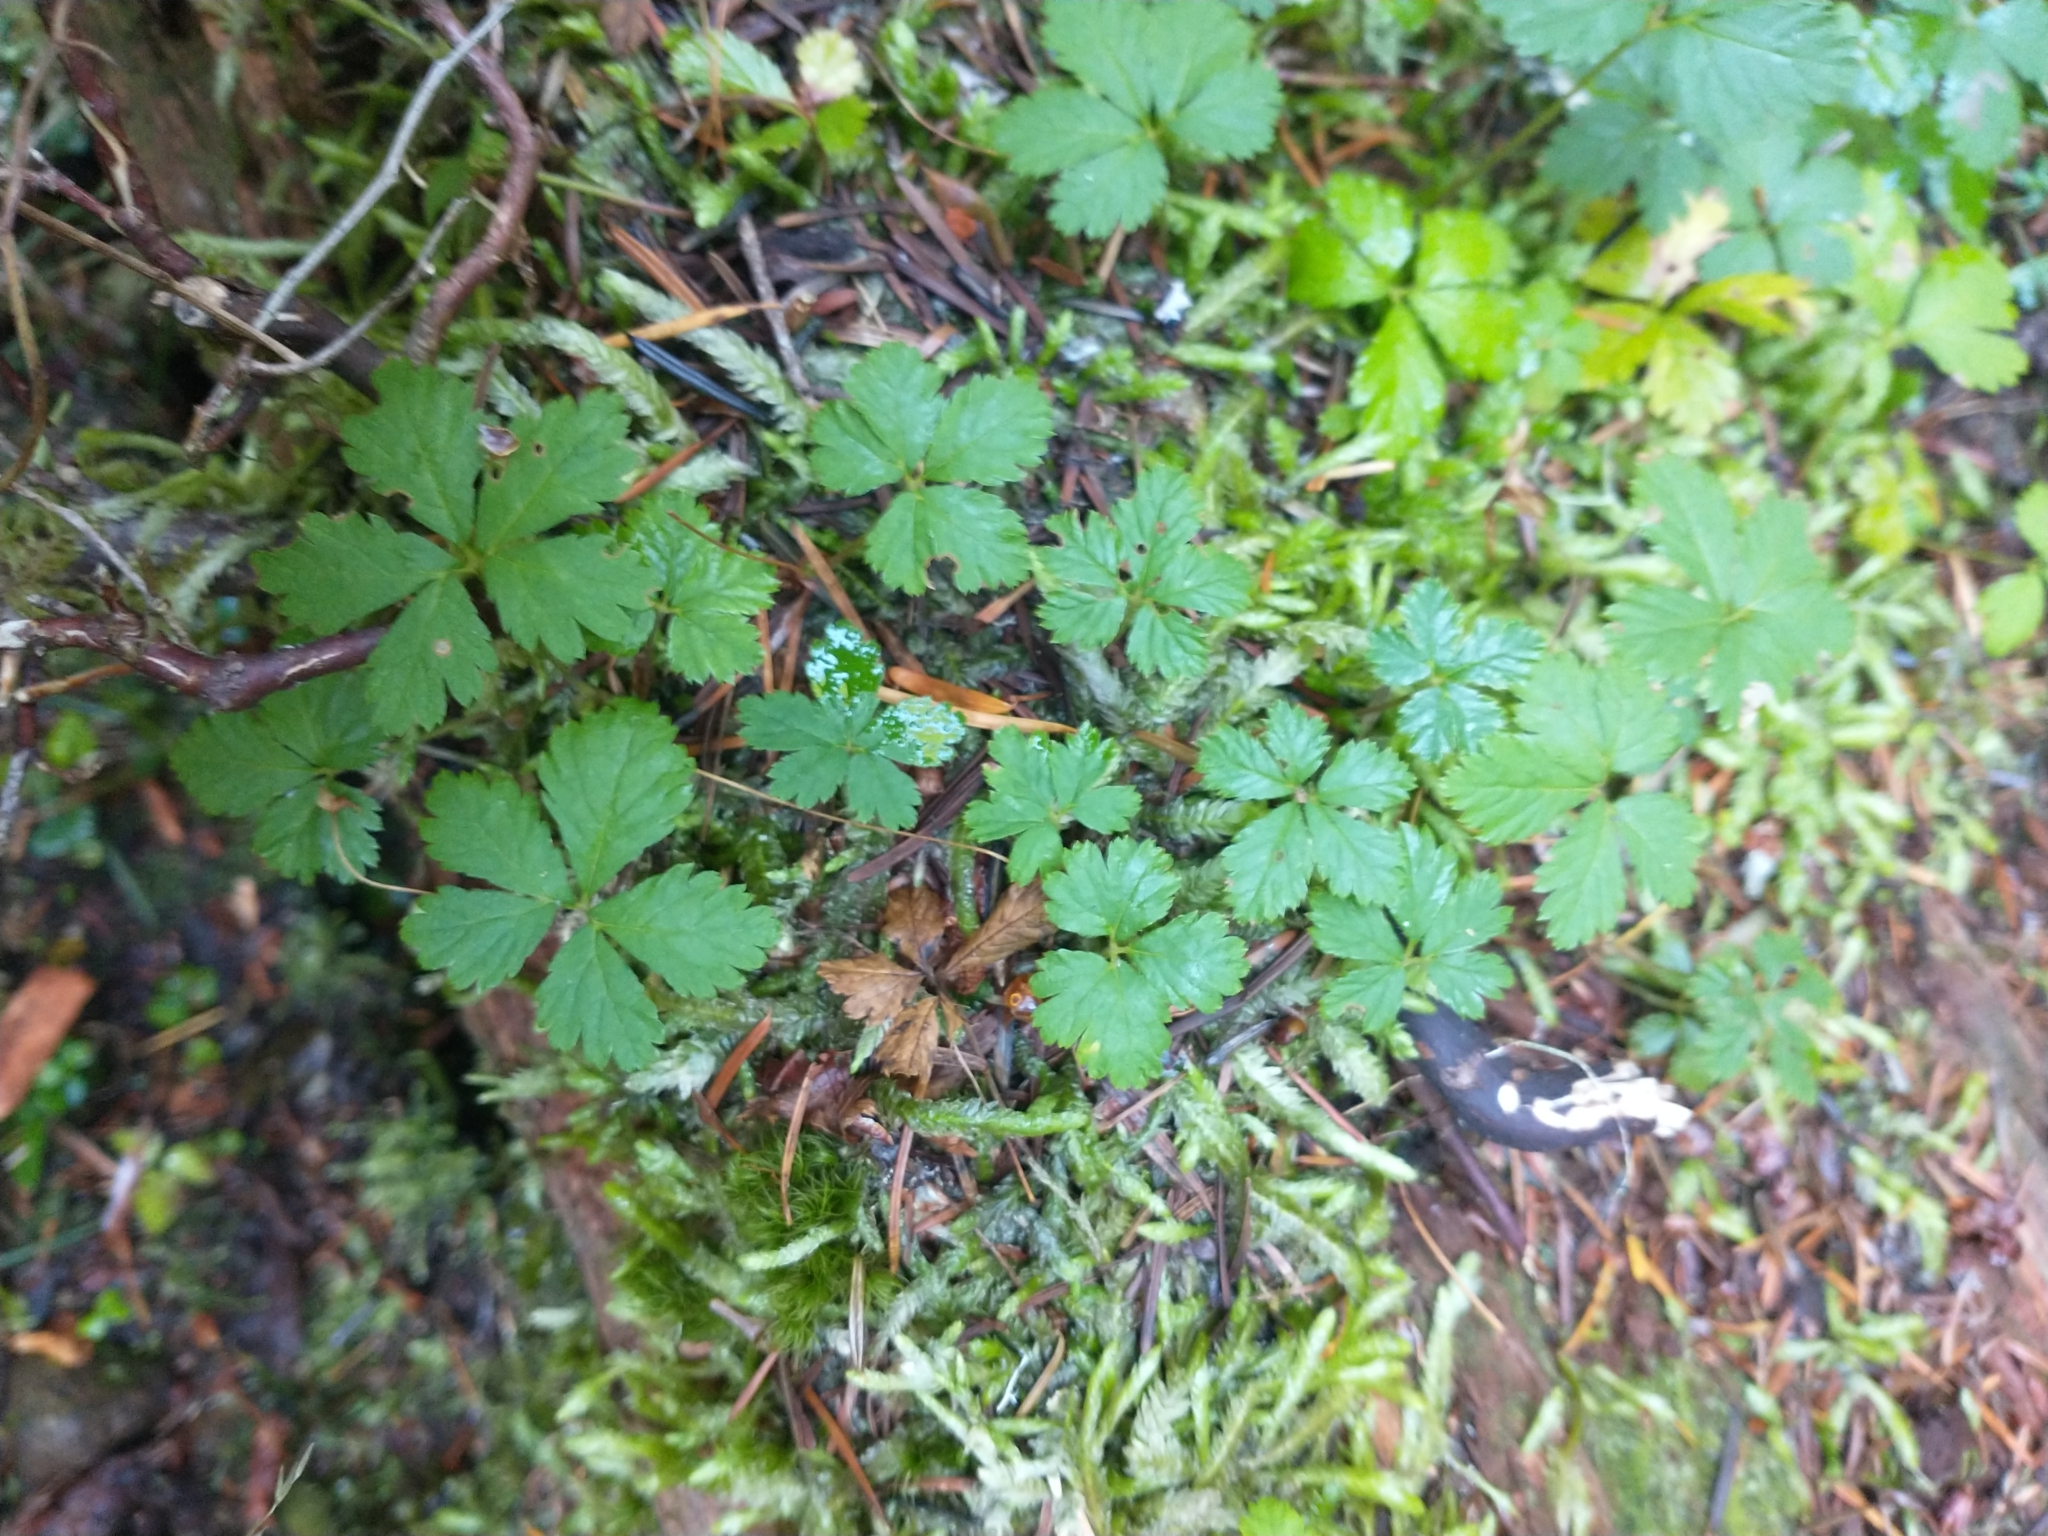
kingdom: Plantae
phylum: Tracheophyta
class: Magnoliopsida
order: Rosales
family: Rosaceae
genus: Rubus
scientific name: Rubus pedatus
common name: Creeping raspberry
